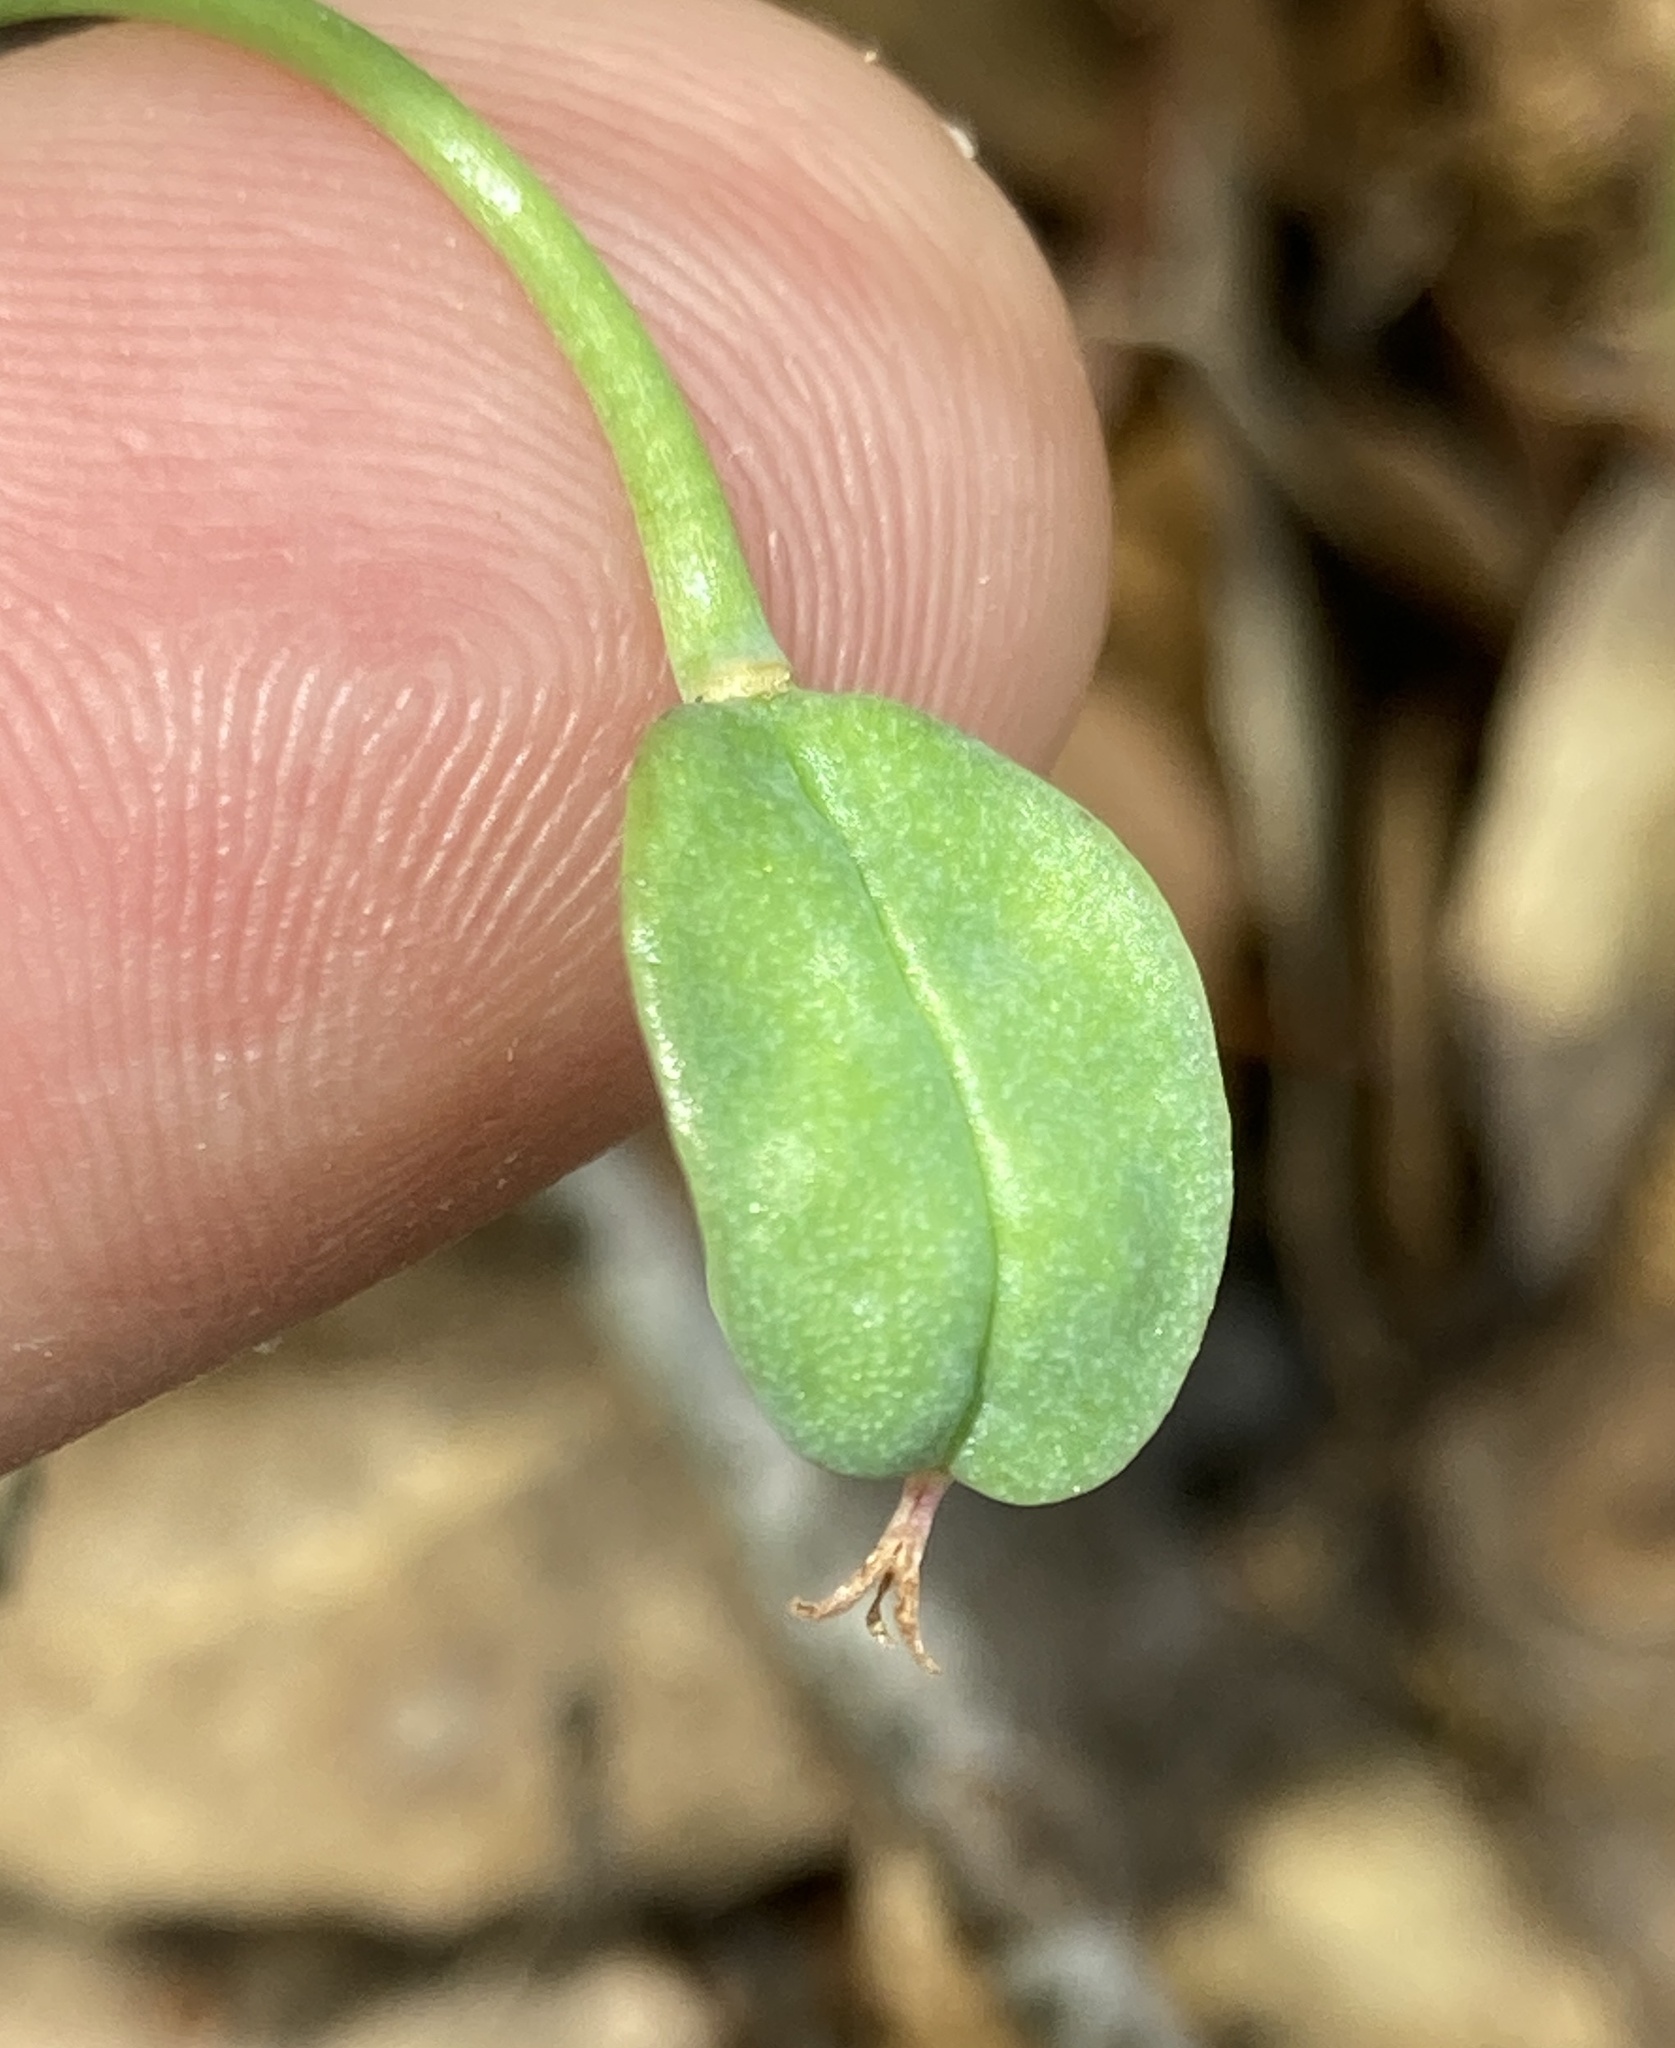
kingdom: Plantae
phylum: Tracheophyta
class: Liliopsida
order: Liliales
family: Liliaceae
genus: Calochortus
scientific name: Calochortus umbellatus
